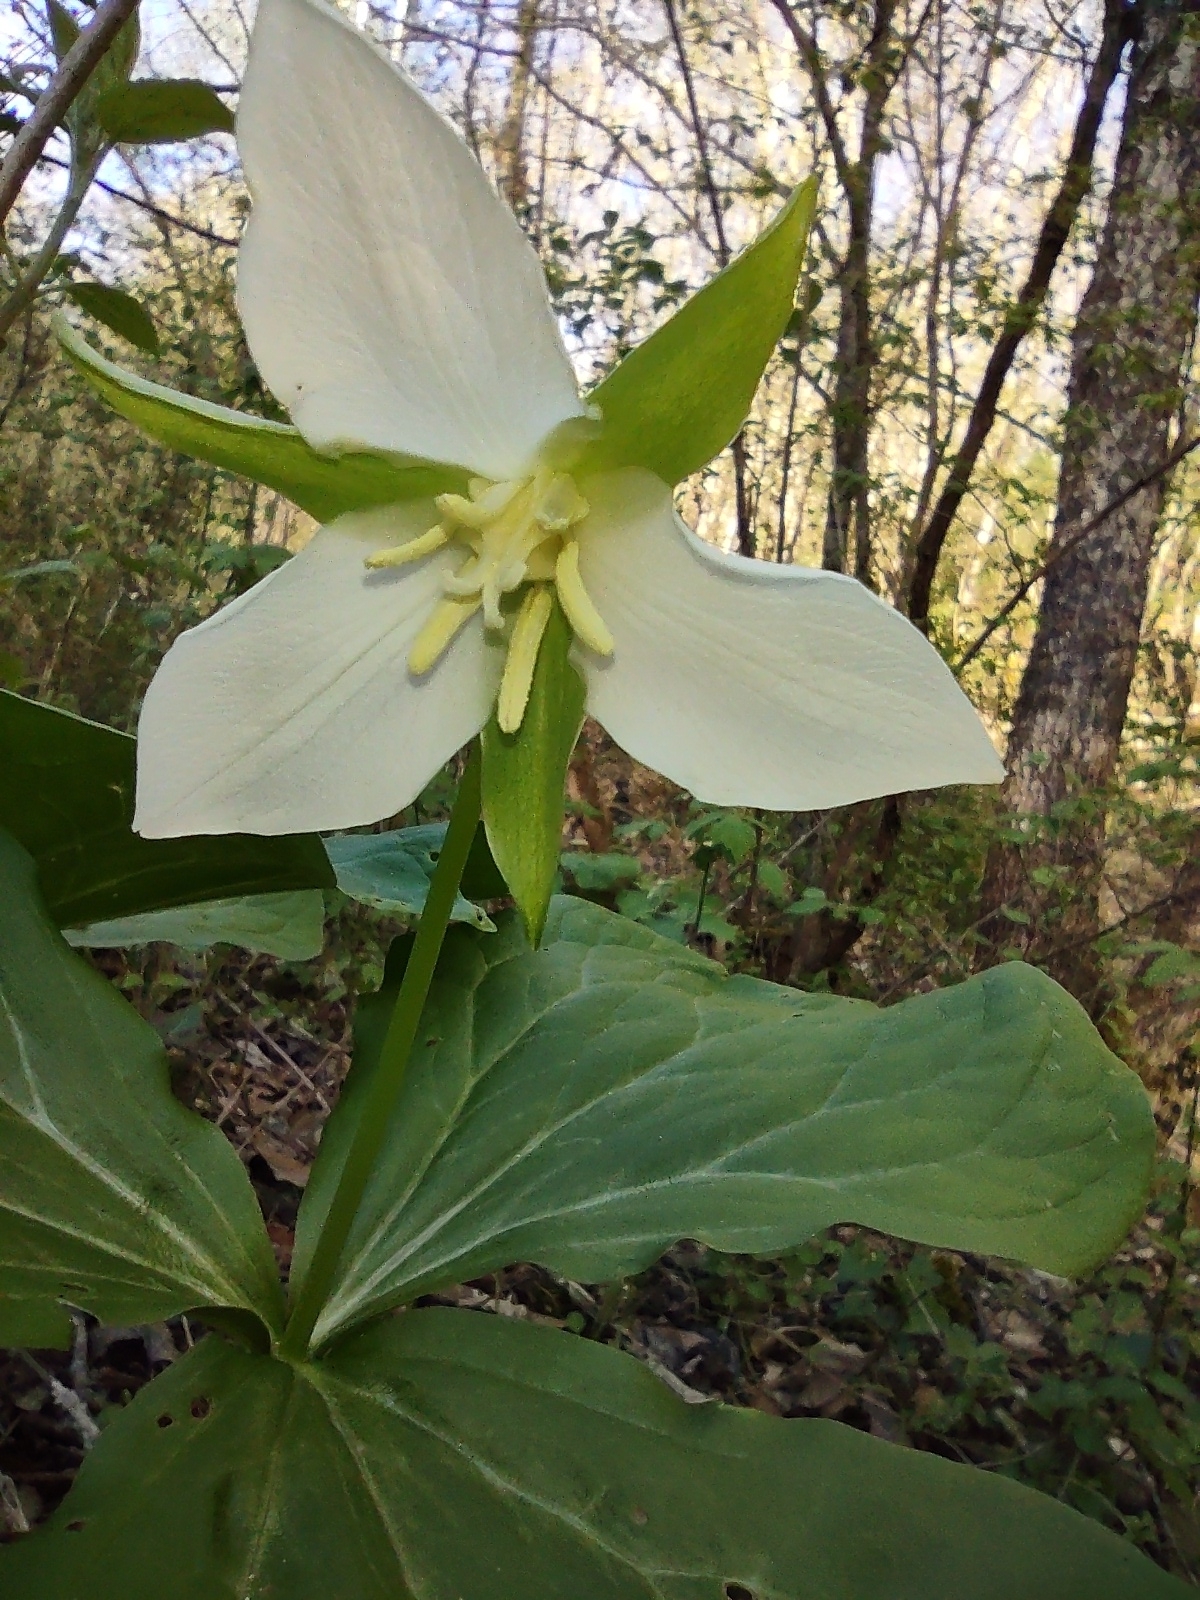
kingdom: Plantae
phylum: Tracheophyta
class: Liliopsida
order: Liliales
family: Melanthiaceae
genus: Trillium
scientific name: Trillium flexipes
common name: Drooping trillium
